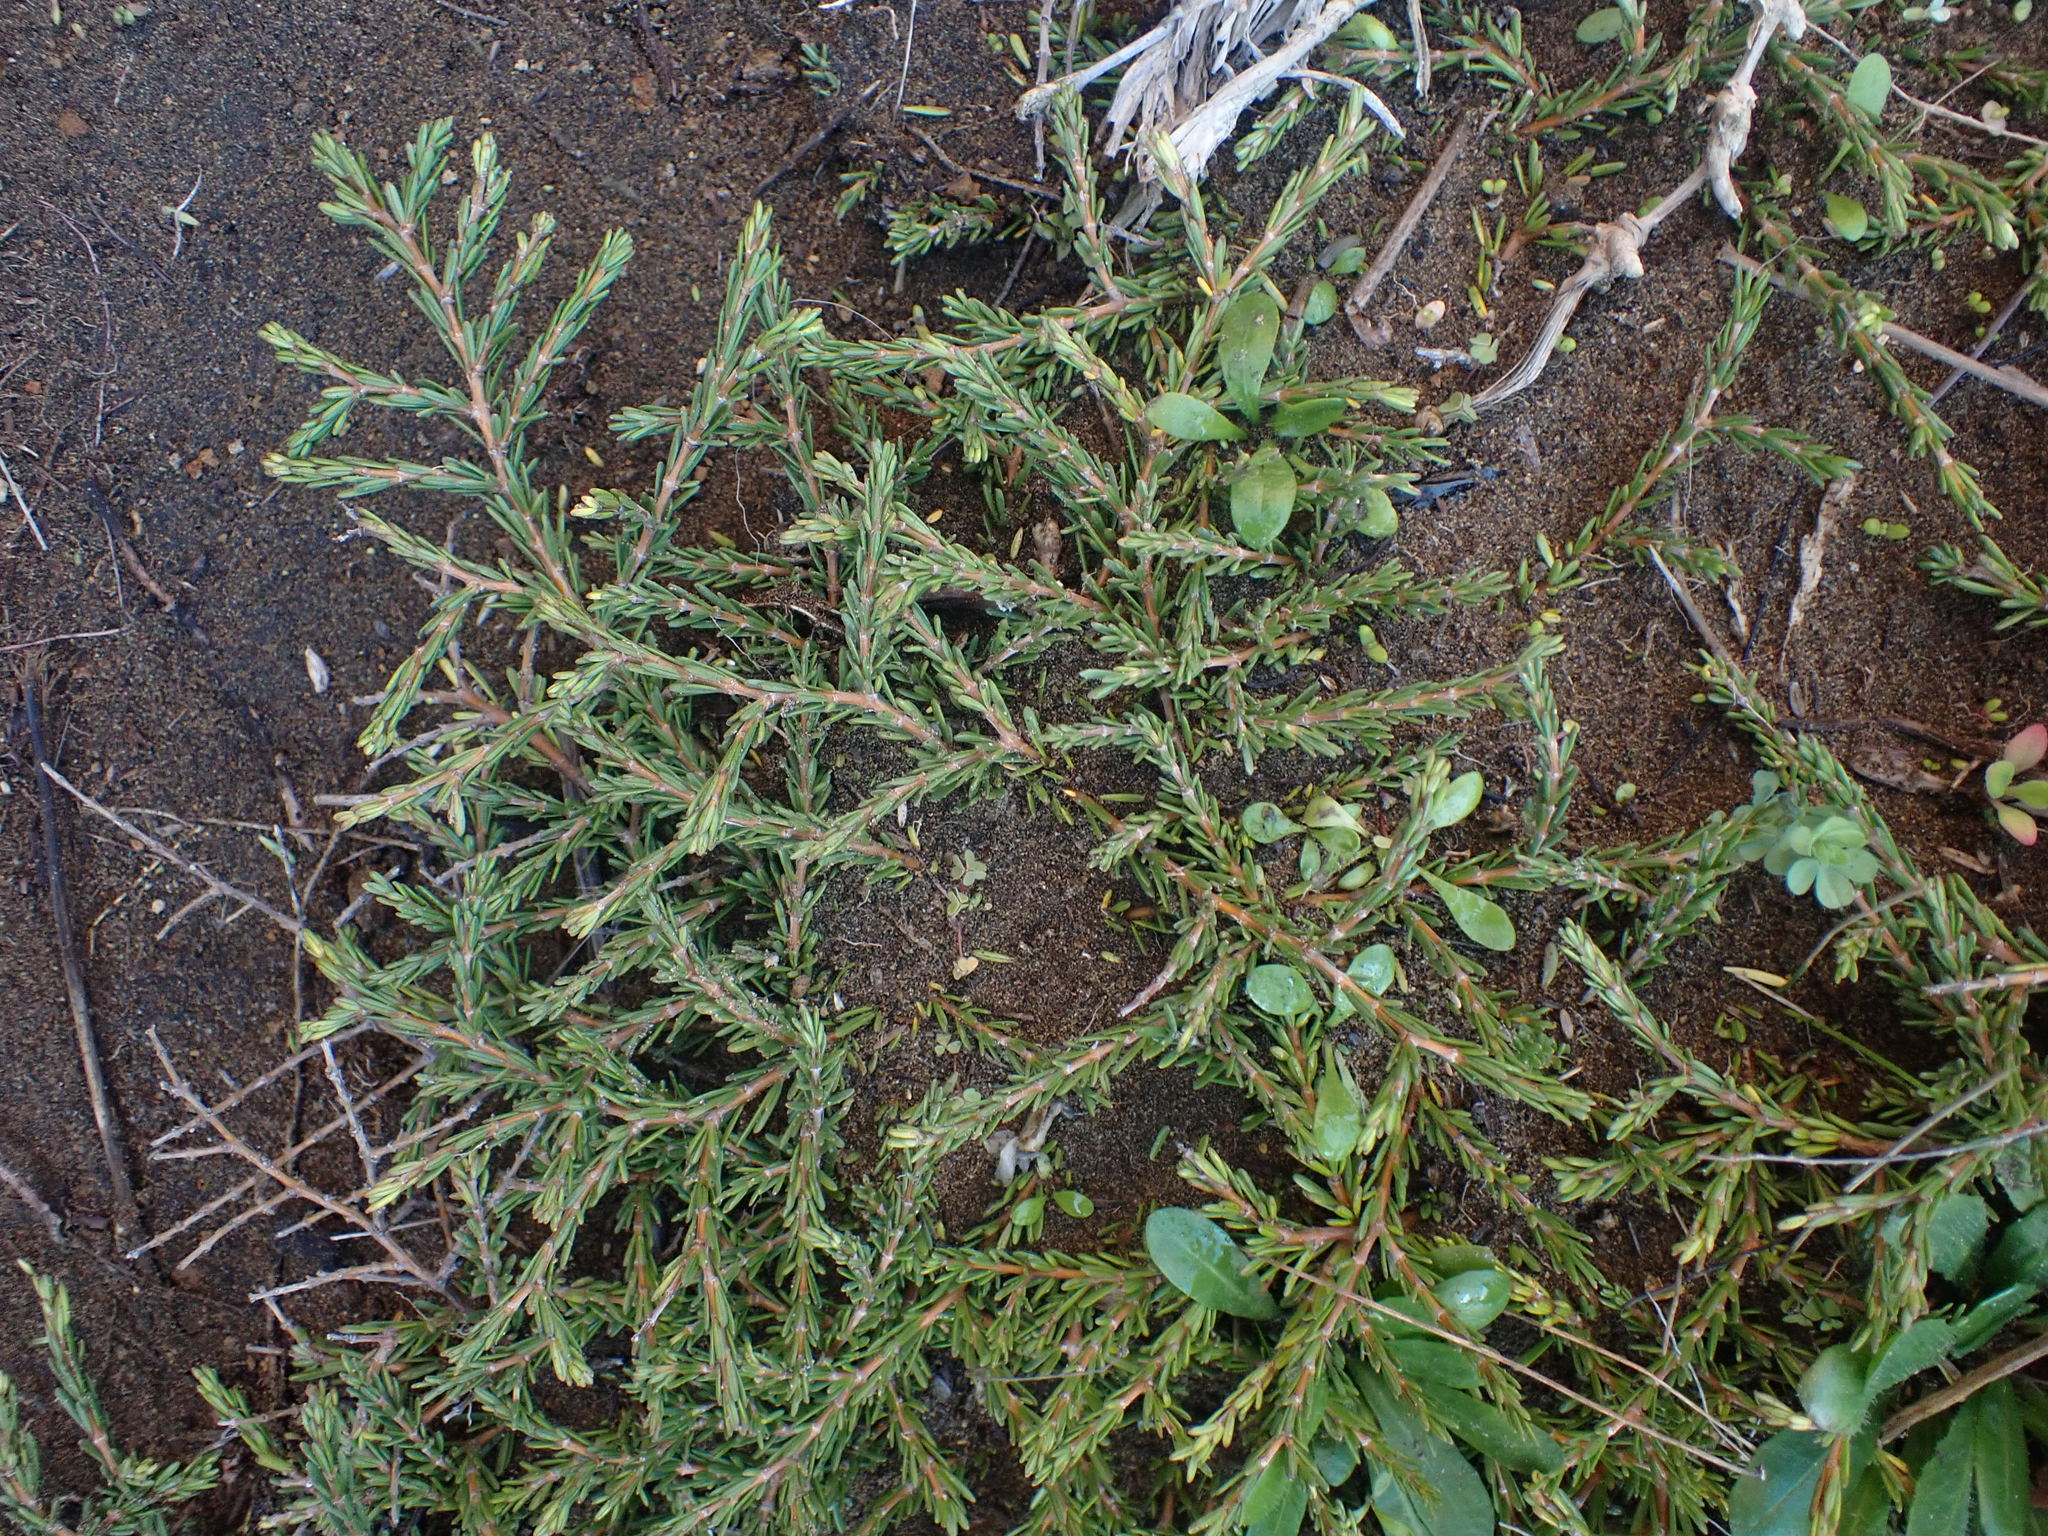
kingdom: Plantae
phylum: Tracheophyta
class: Magnoliopsida
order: Gentianales
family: Rubiaceae
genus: Coprosma
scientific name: Coprosma acerosa
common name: Sand coprosma
